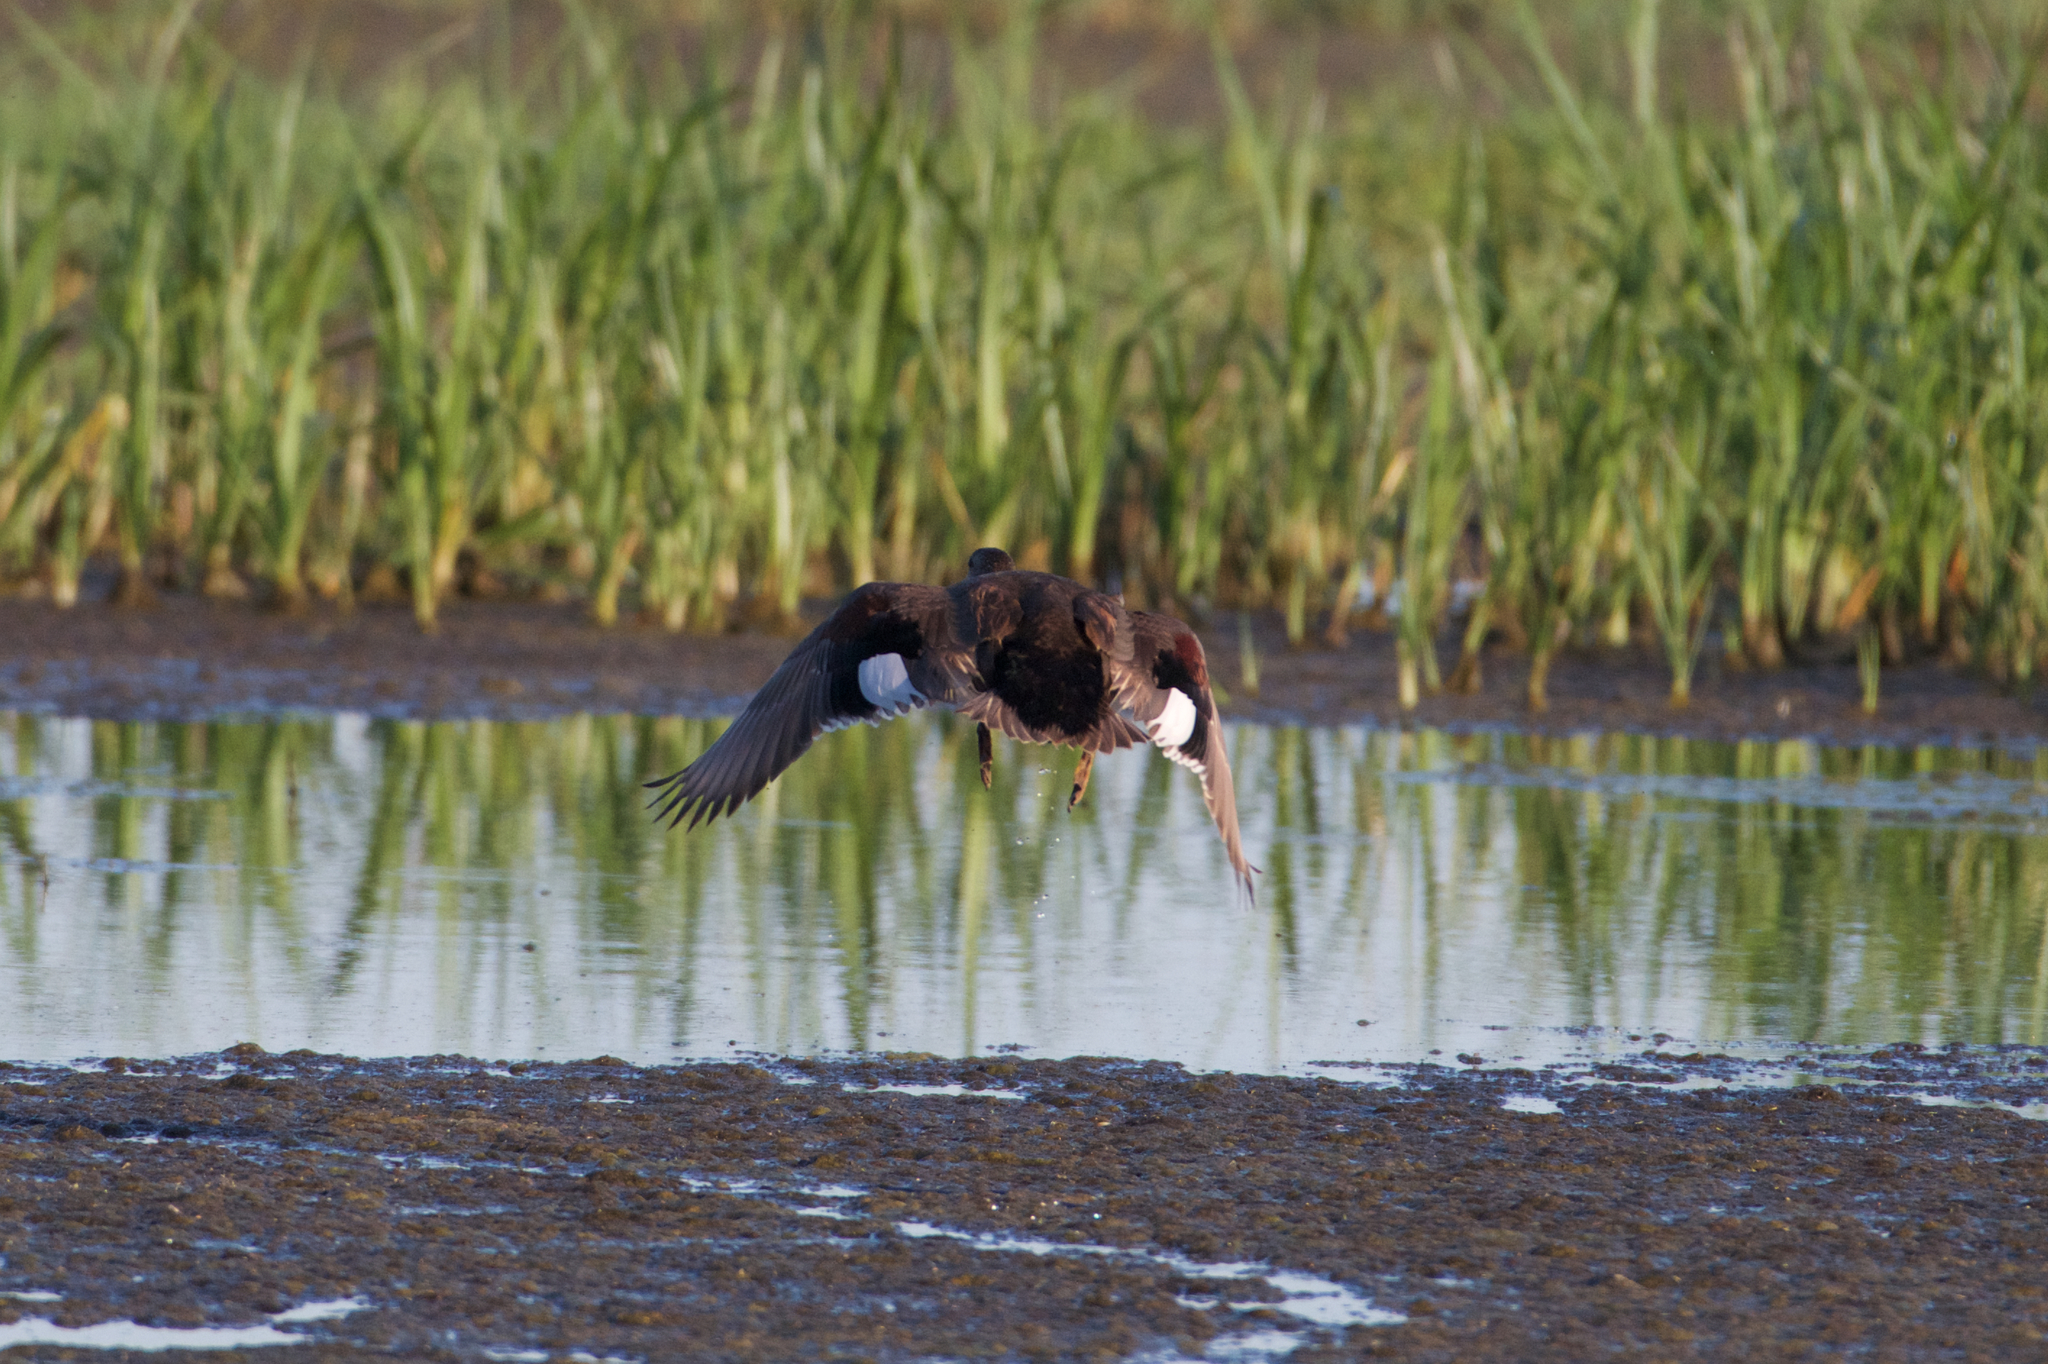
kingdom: Animalia
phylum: Chordata
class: Aves
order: Anseriformes
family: Anatidae
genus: Mareca
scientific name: Mareca strepera
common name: Gadwall
